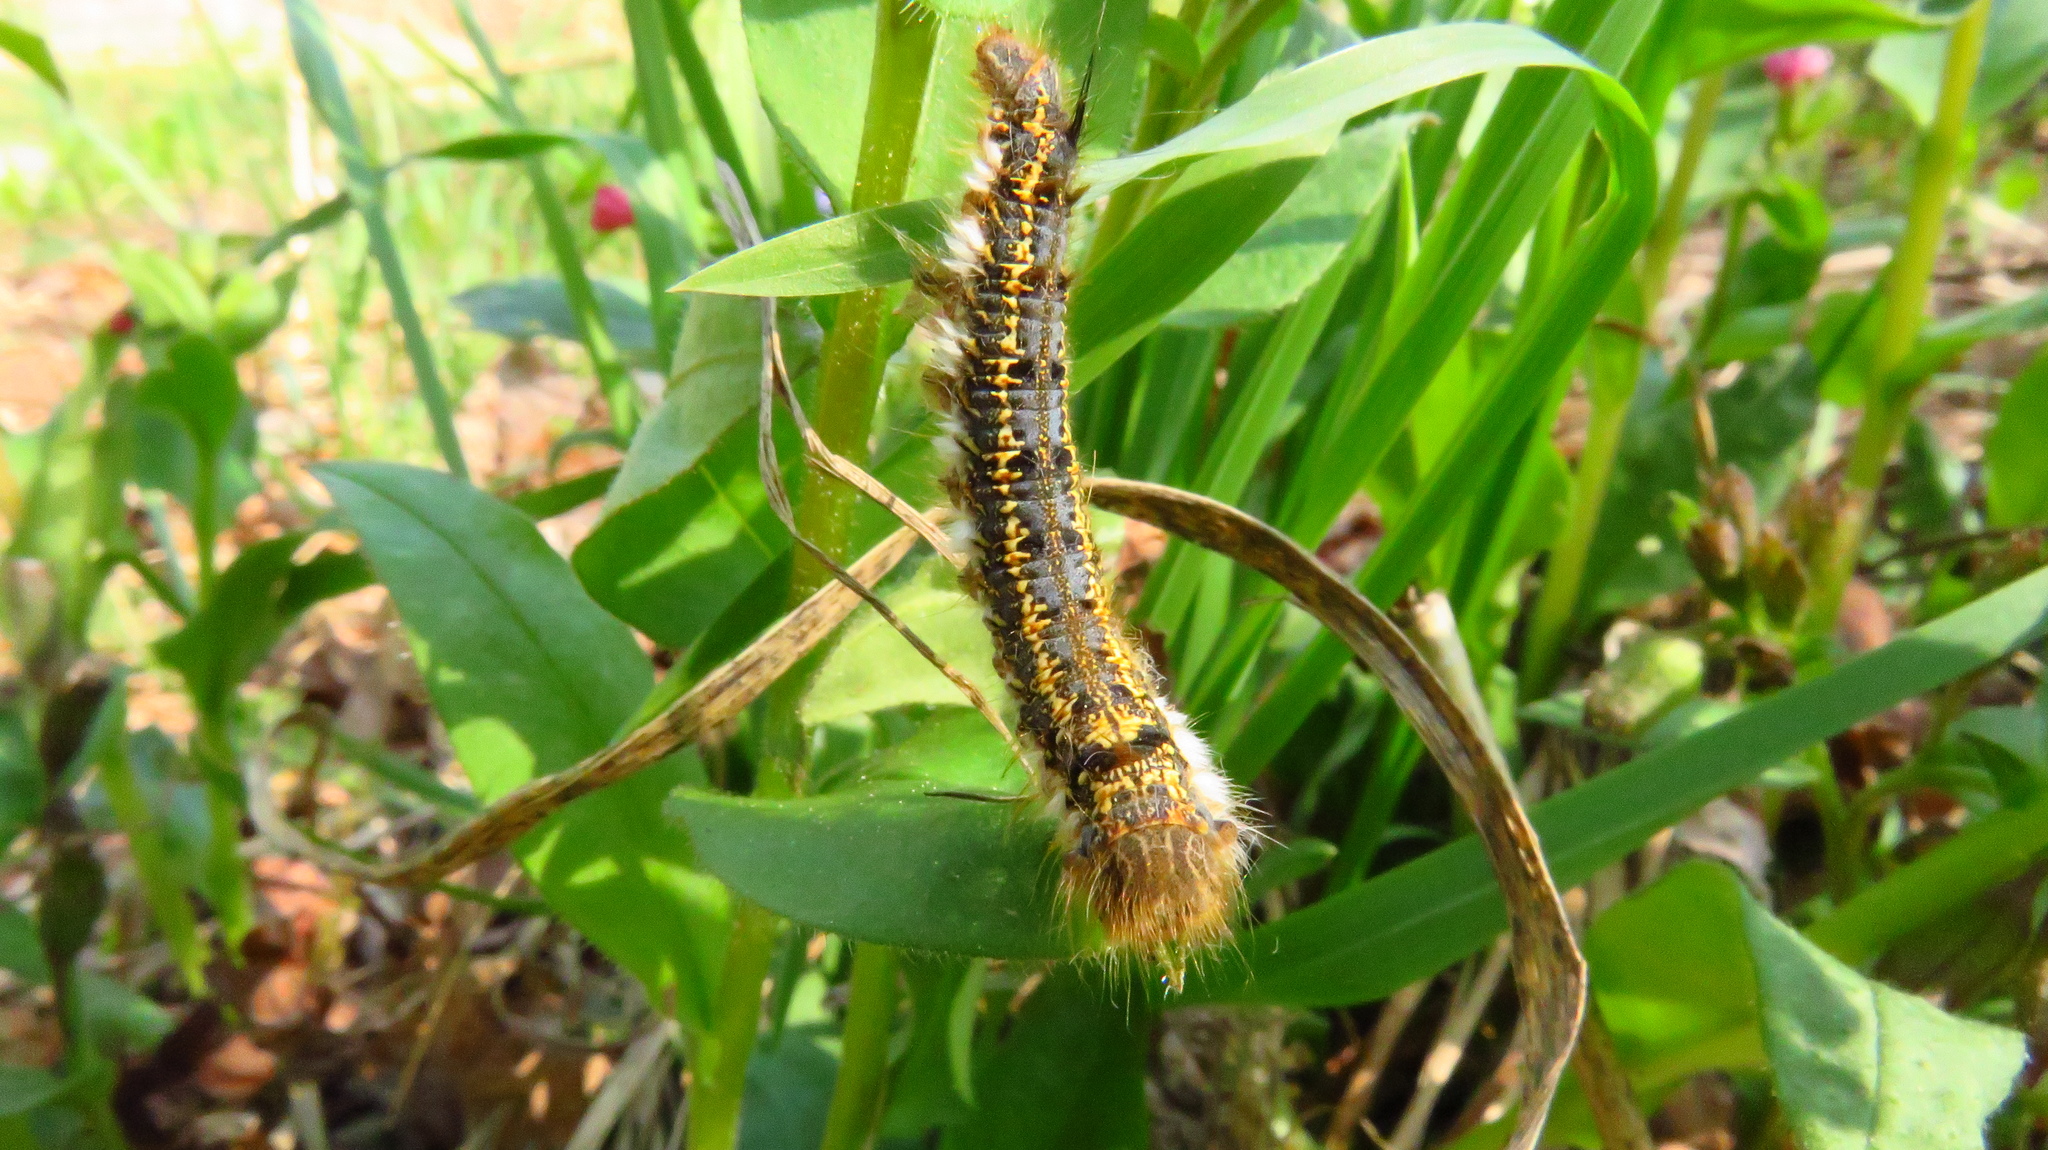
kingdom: Animalia
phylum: Arthropoda
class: Insecta
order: Lepidoptera
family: Lasiocampidae
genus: Euthrix
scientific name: Euthrix potatoria
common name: Drinker
